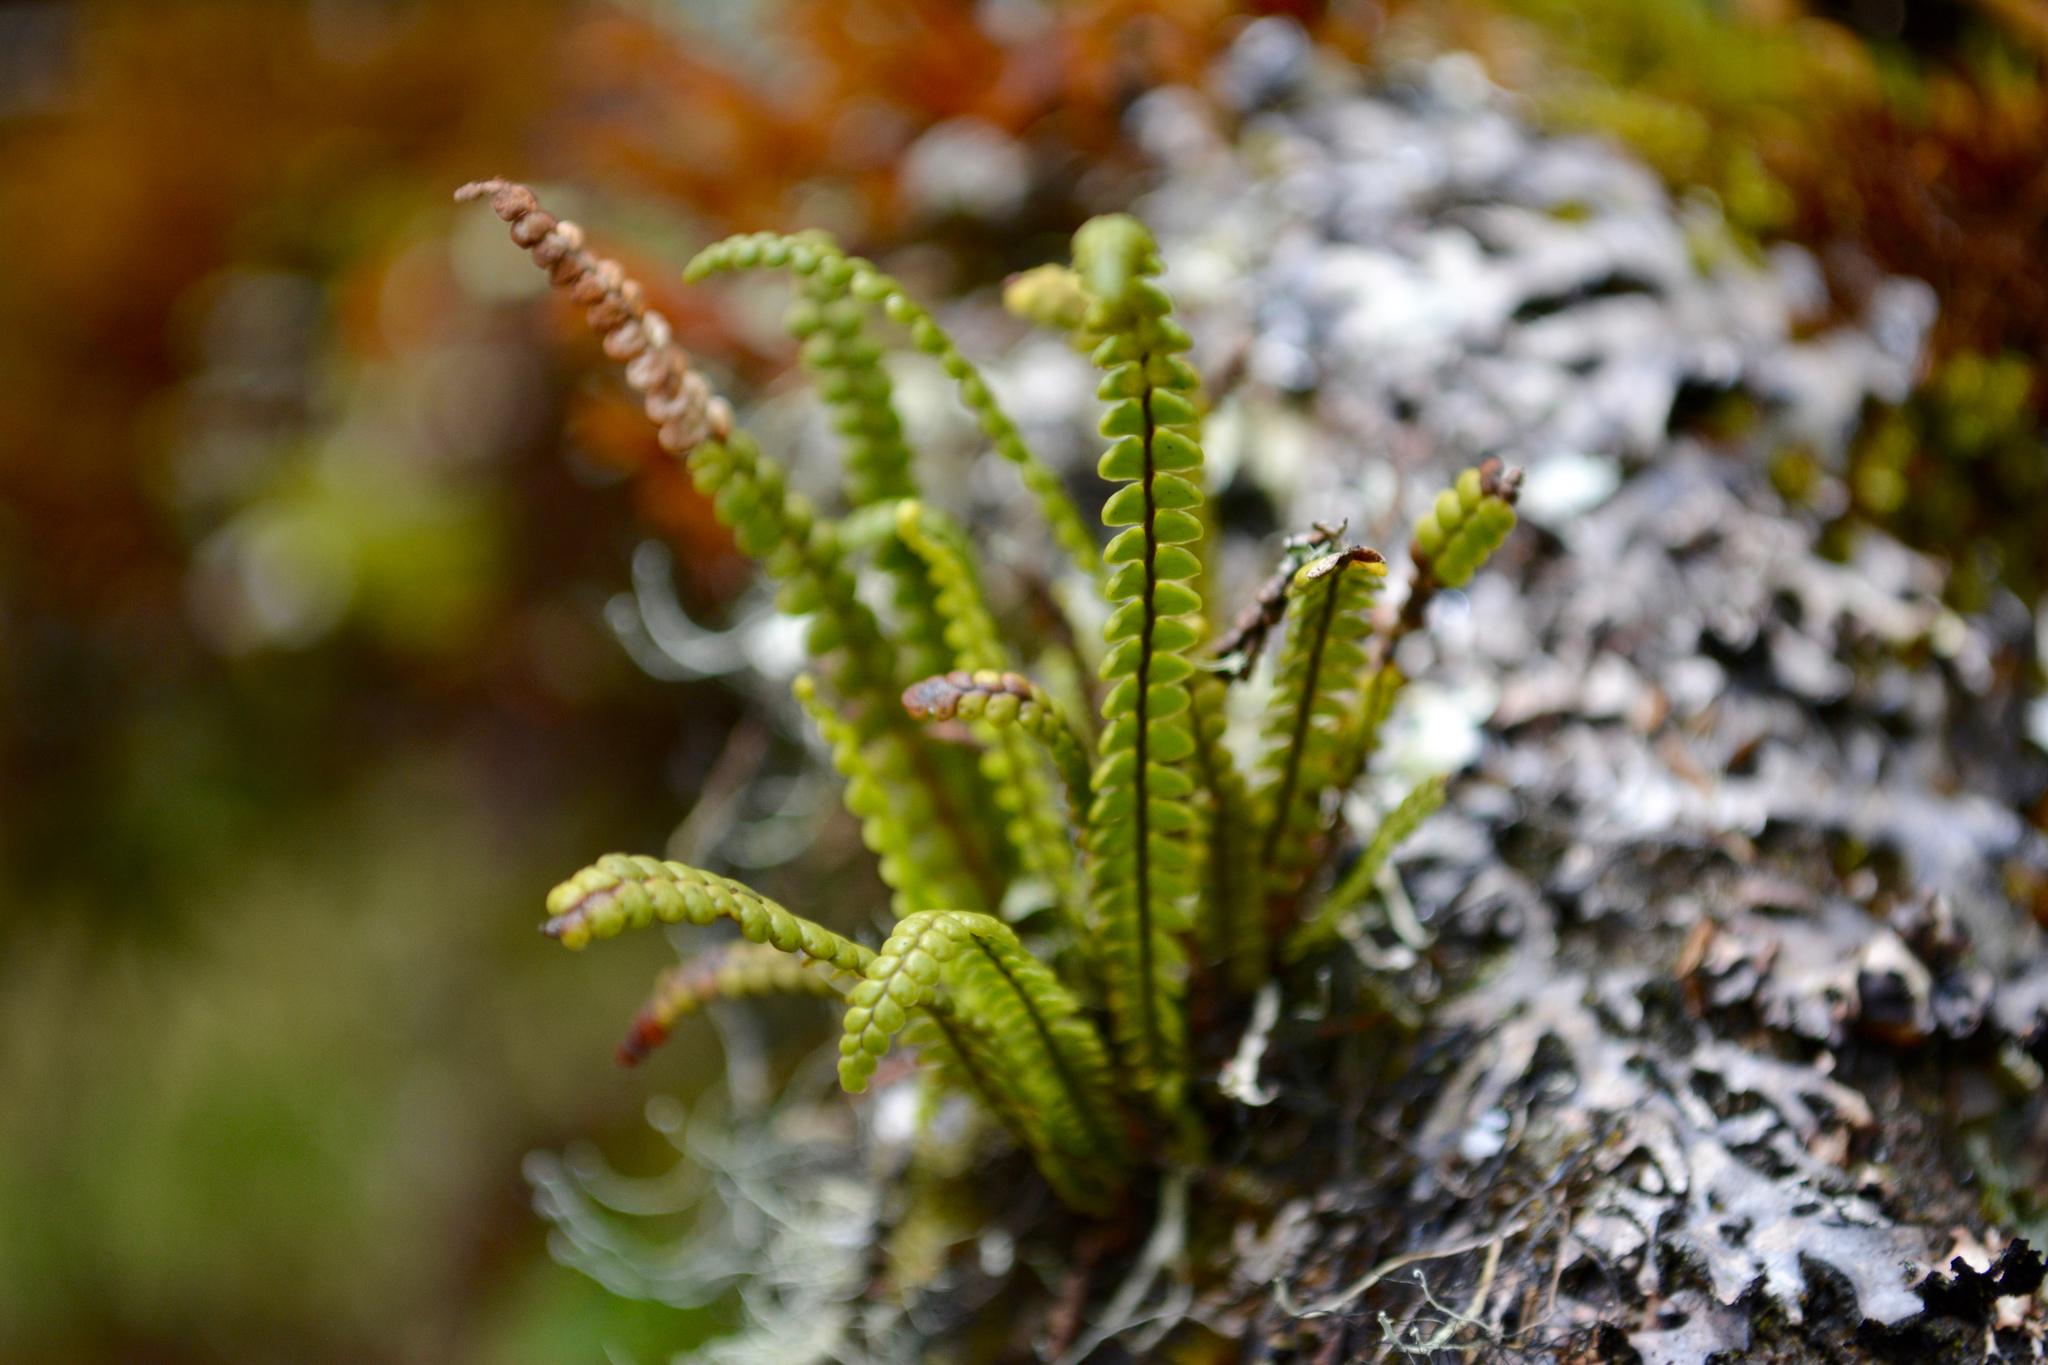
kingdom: Plantae
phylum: Tracheophyta
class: Polypodiopsida
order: Polypodiales
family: Polypodiaceae
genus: Melpomene
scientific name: Melpomene moniliformis
